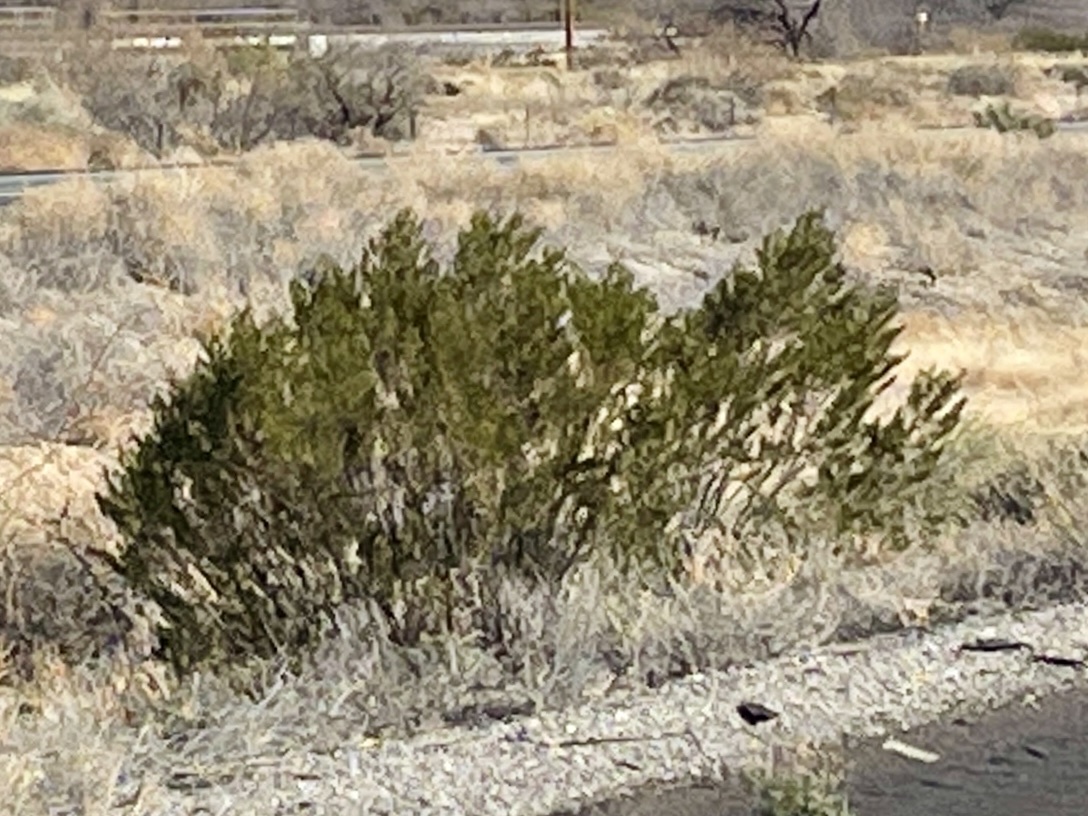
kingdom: Plantae
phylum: Tracheophyta
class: Magnoliopsida
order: Zygophyllales
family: Zygophyllaceae
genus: Larrea
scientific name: Larrea tridentata
